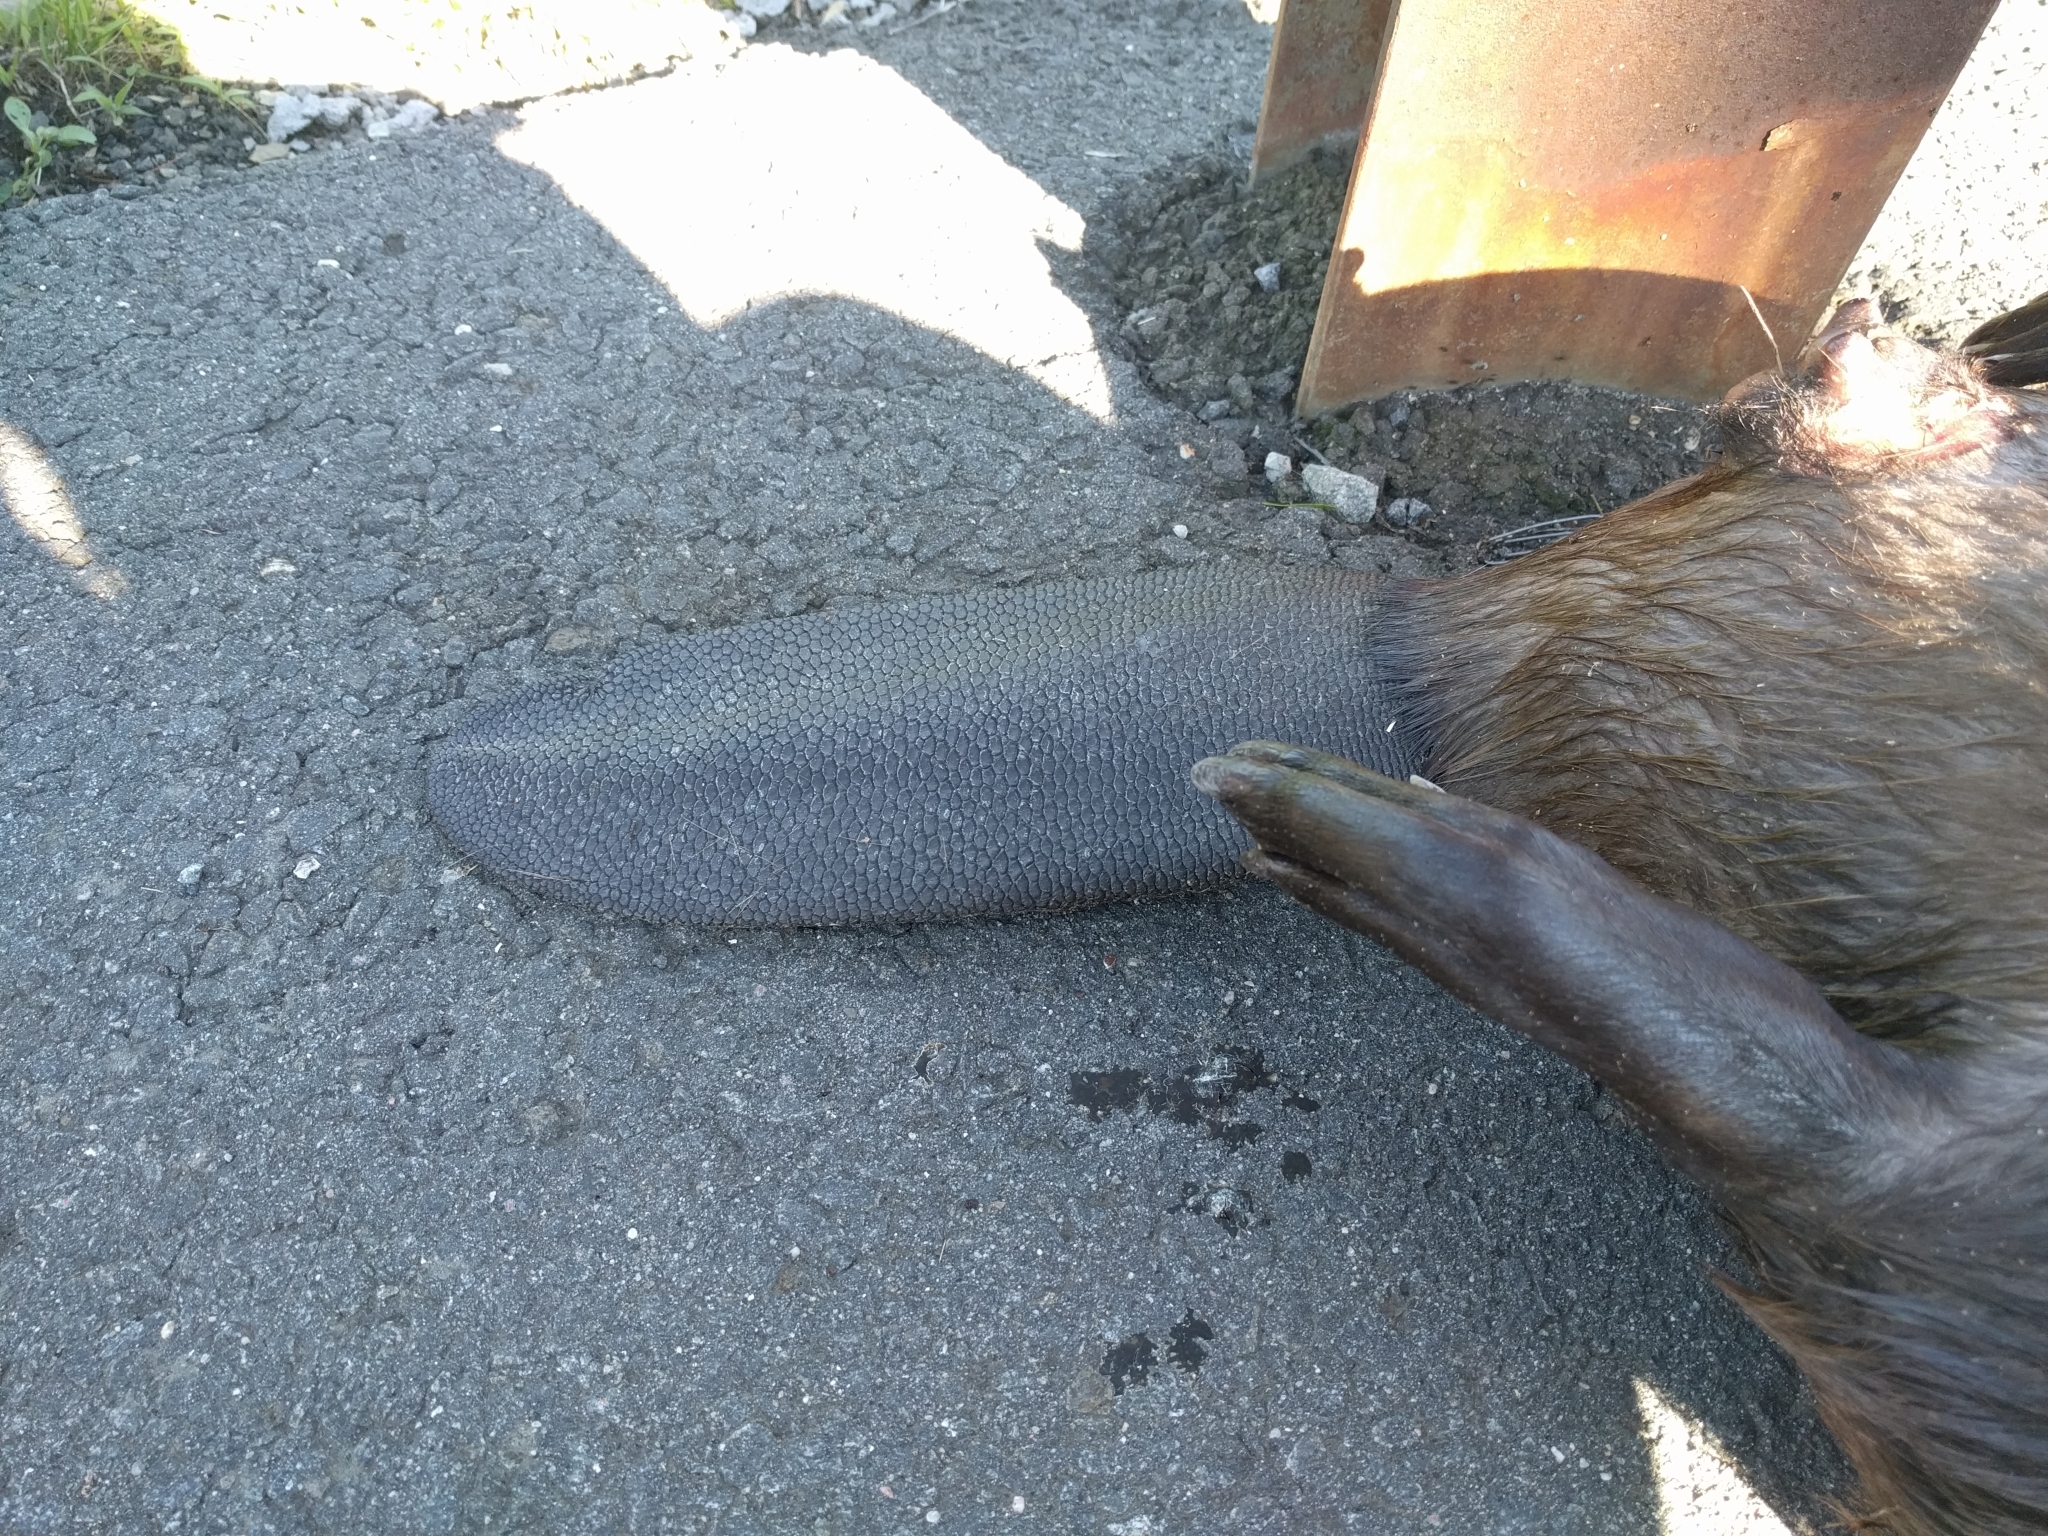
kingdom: Animalia
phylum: Chordata
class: Mammalia
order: Rodentia
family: Castoridae
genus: Castor
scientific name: Castor canadensis
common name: American beaver
